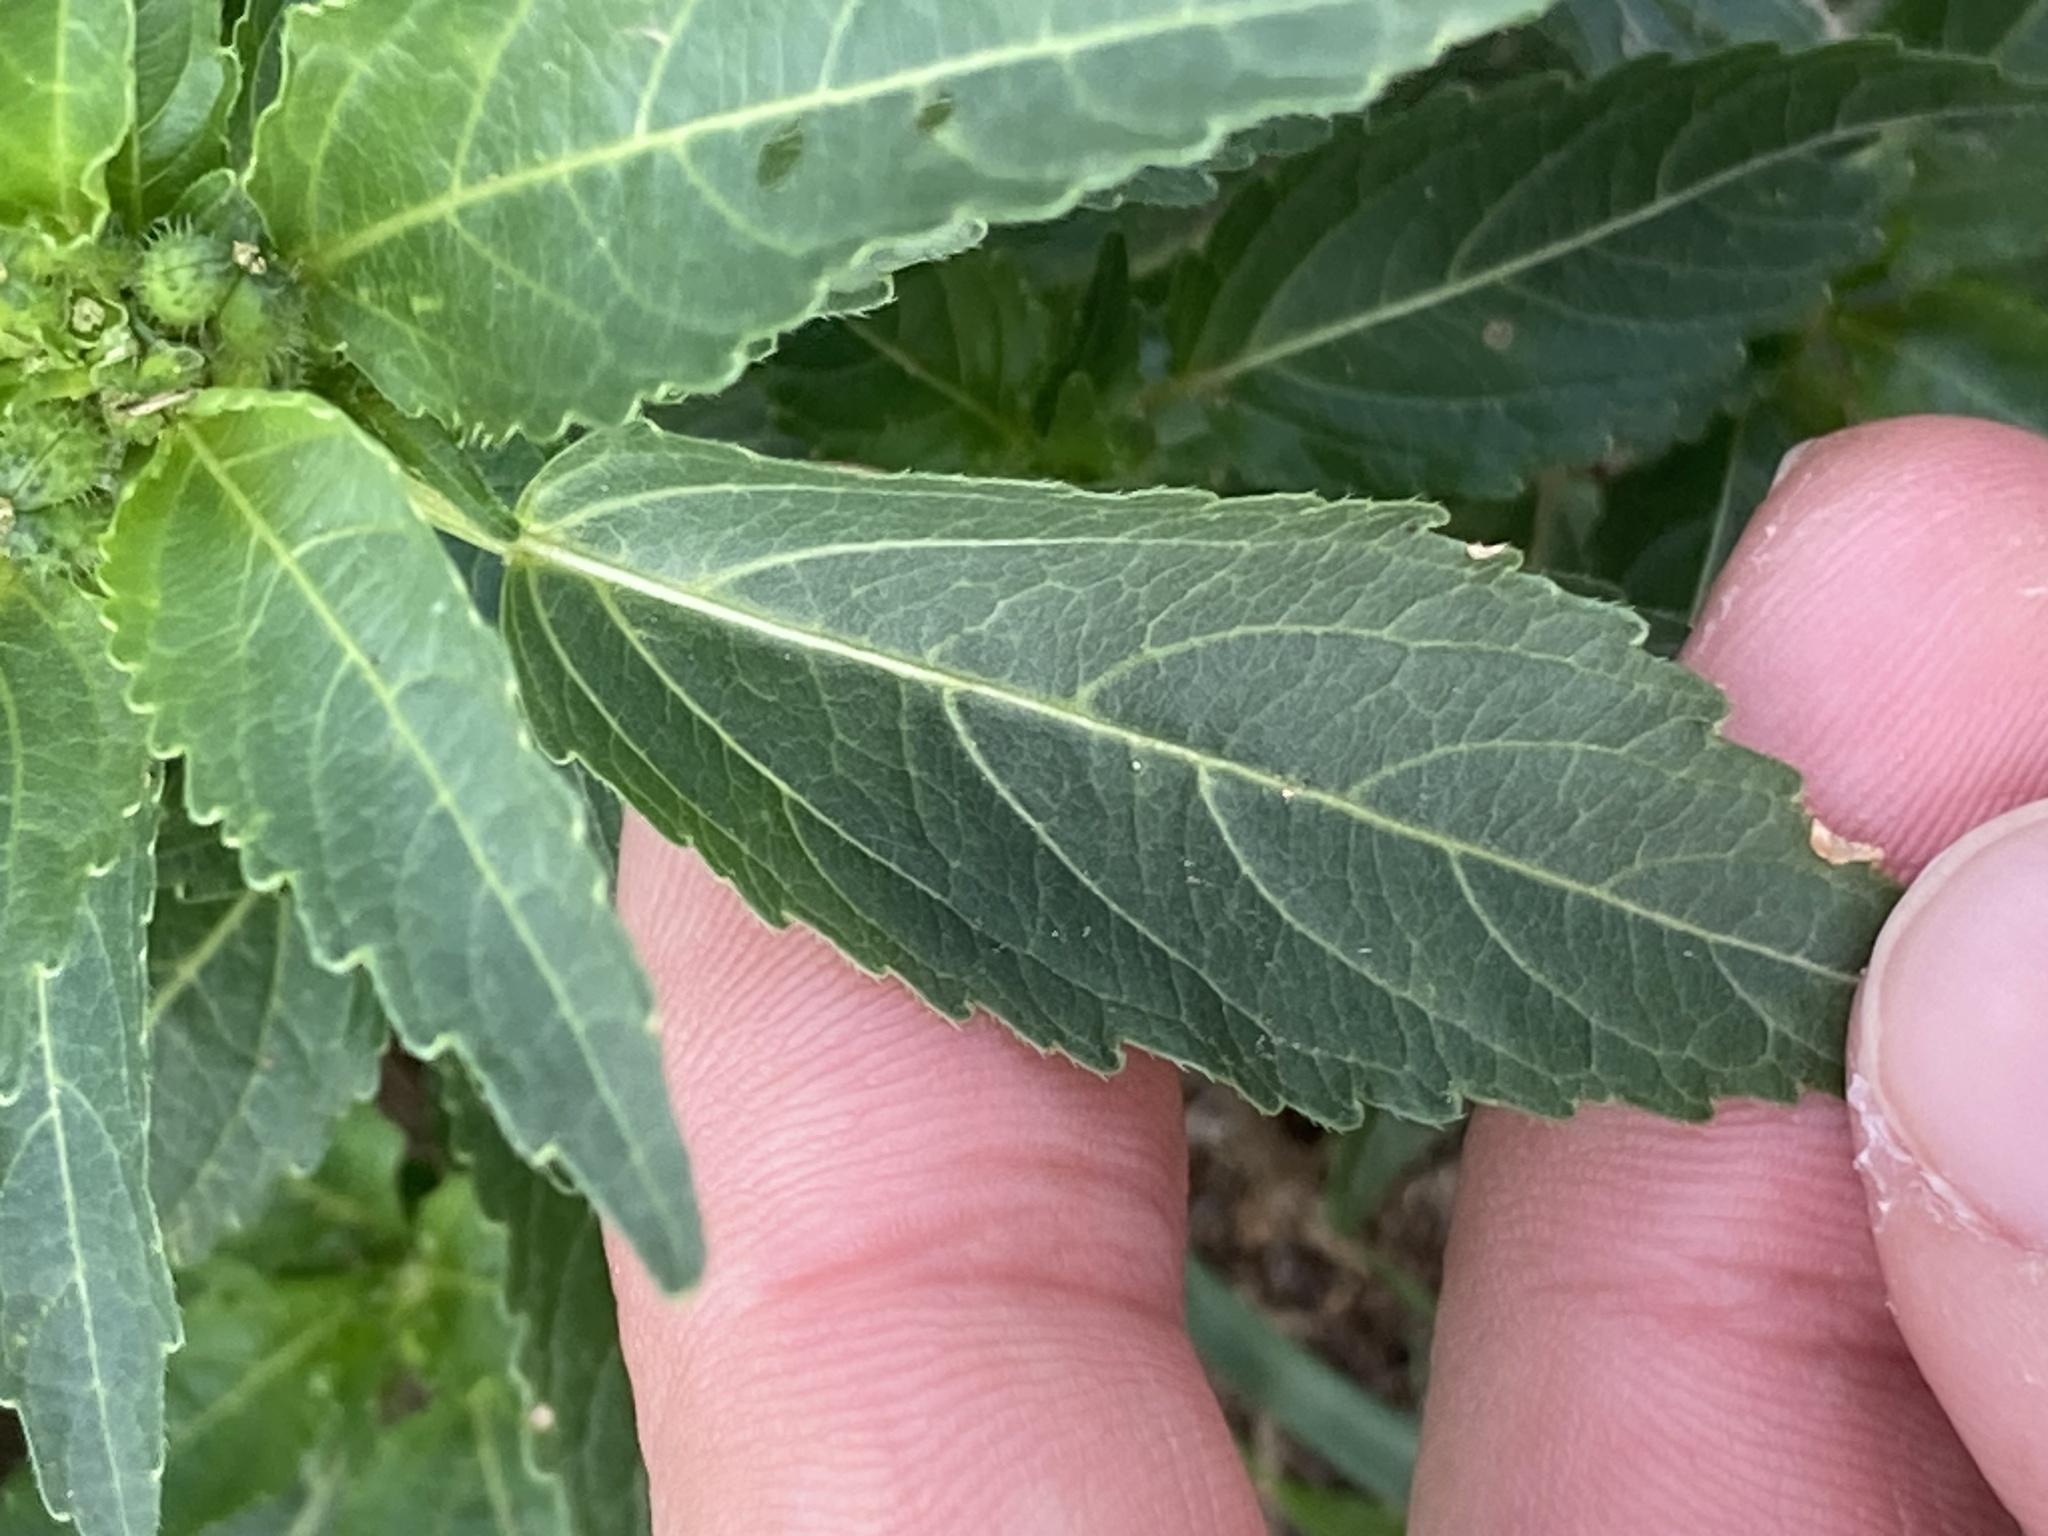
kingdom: Plantae
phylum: Tracheophyta
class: Magnoliopsida
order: Malpighiales
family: Euphorbiaceae
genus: Mercurialis
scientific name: Mercurialis annua
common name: Annual mercury
